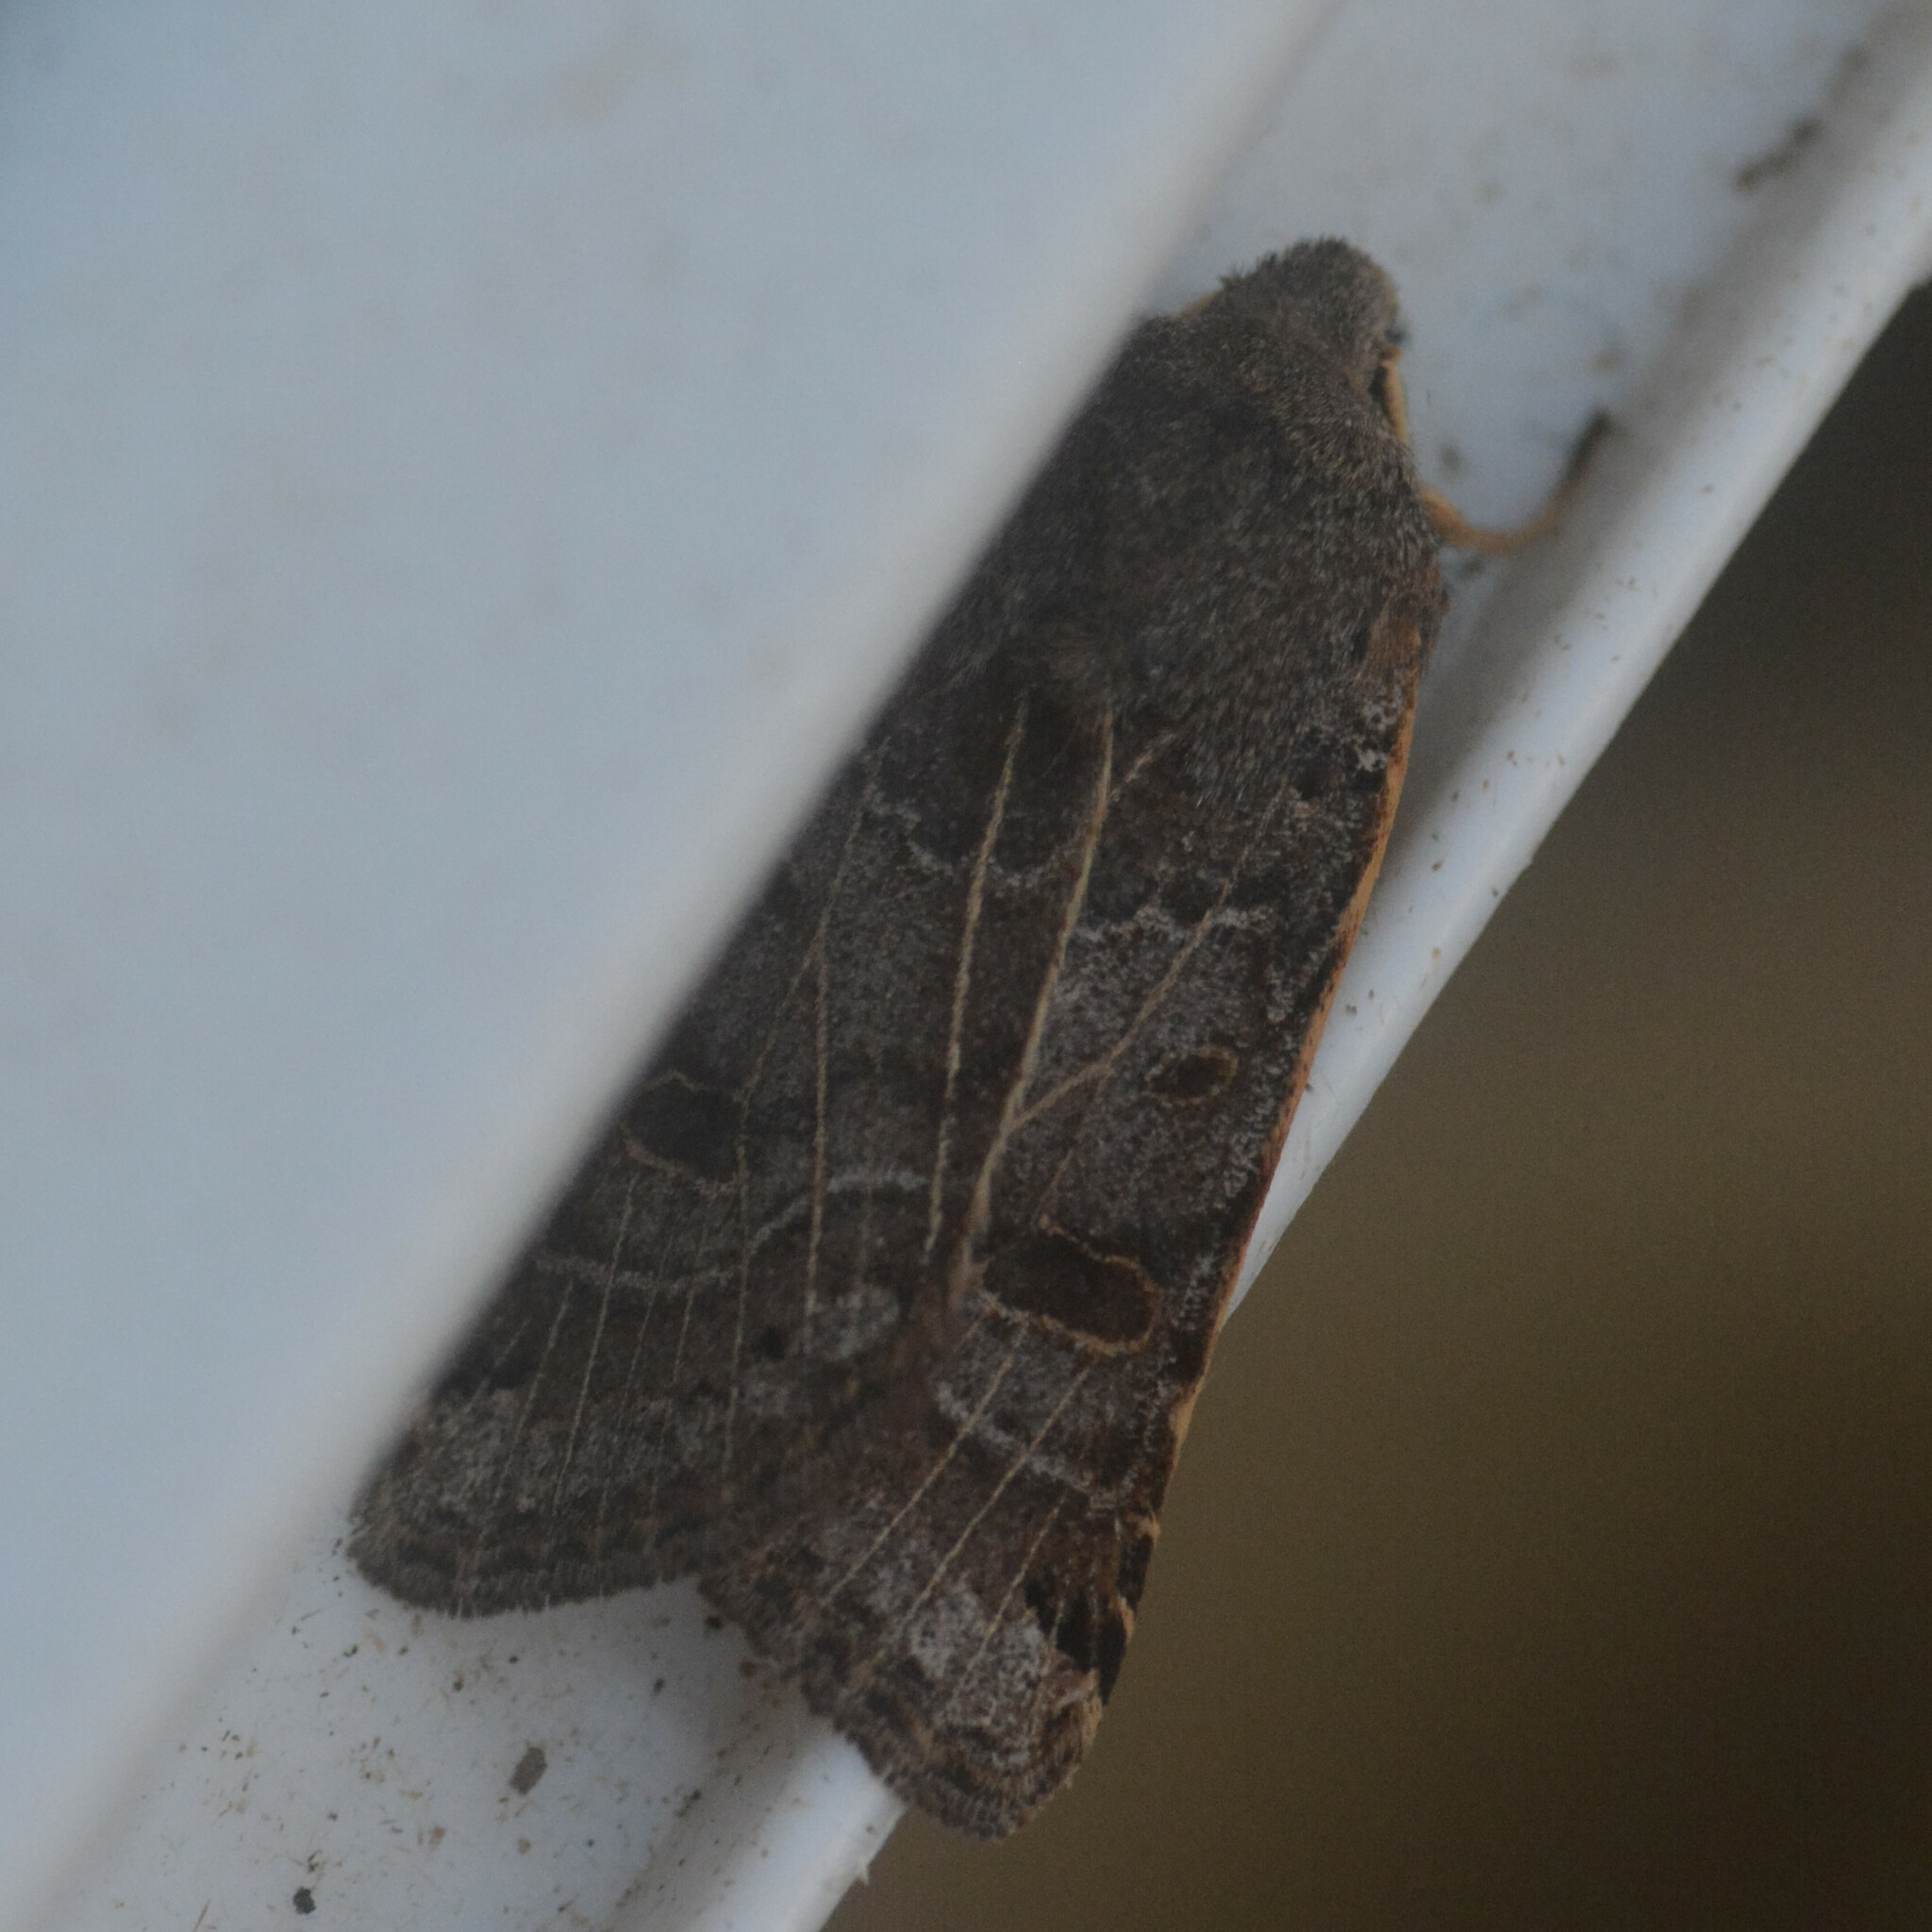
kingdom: Animalia
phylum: Arthropoda
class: Insecta
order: Lepidoptera
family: Noctuidae
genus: Agrochola
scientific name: Agrochola lunosa
